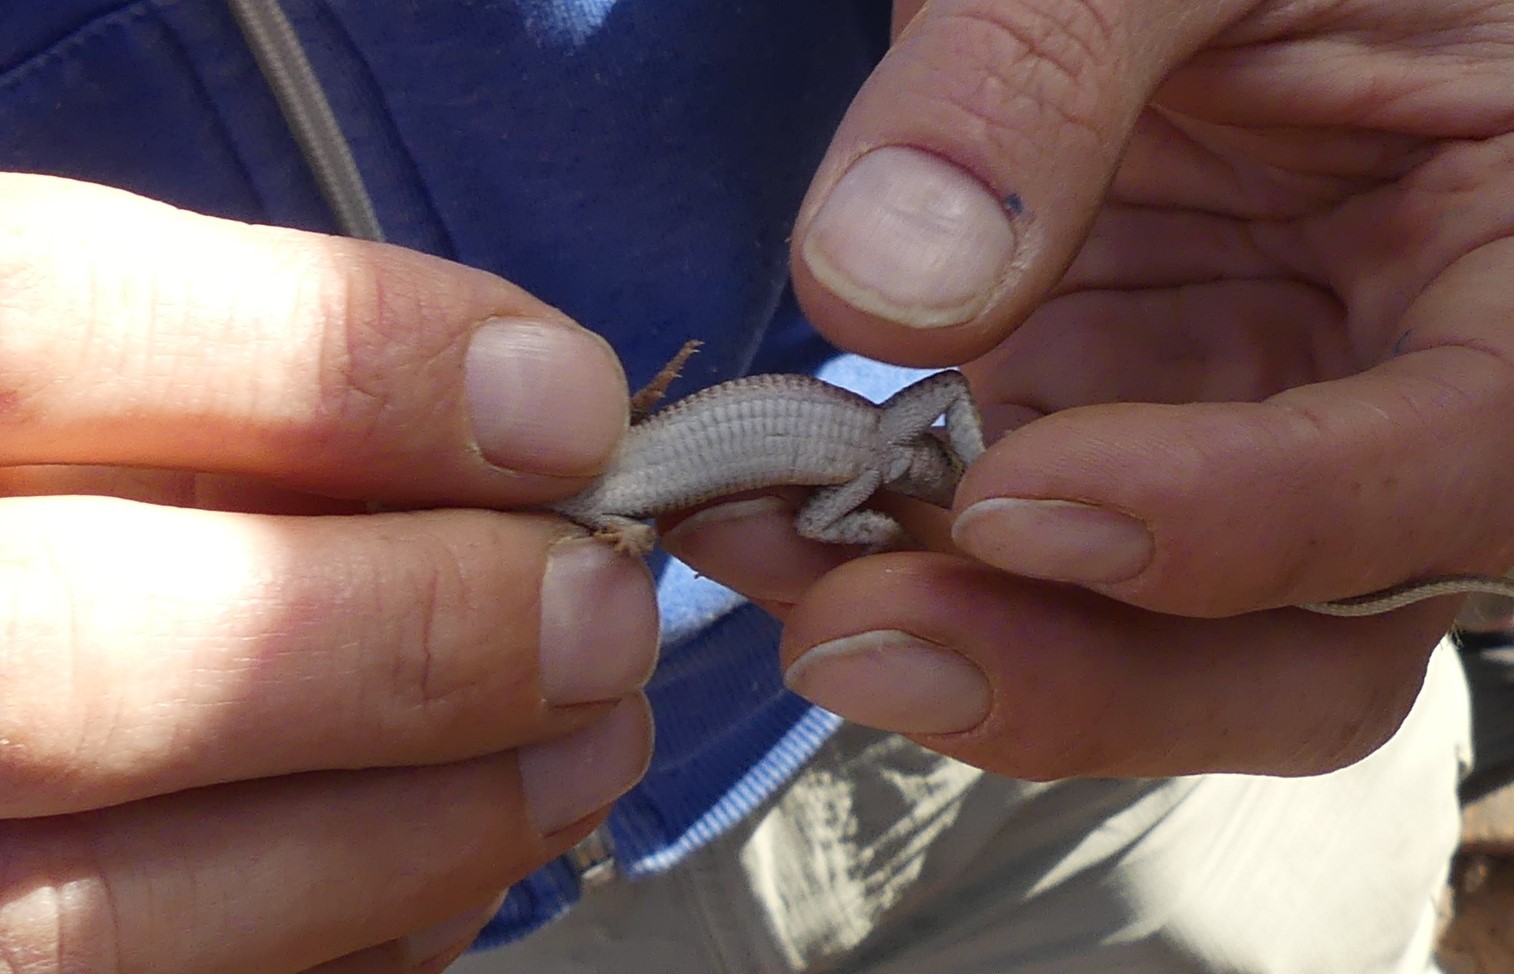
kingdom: Animalia
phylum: Chordata
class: Squamata
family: Lacertidae
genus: Mesalina
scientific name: Mesalina guttulata
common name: Desert lacerta
